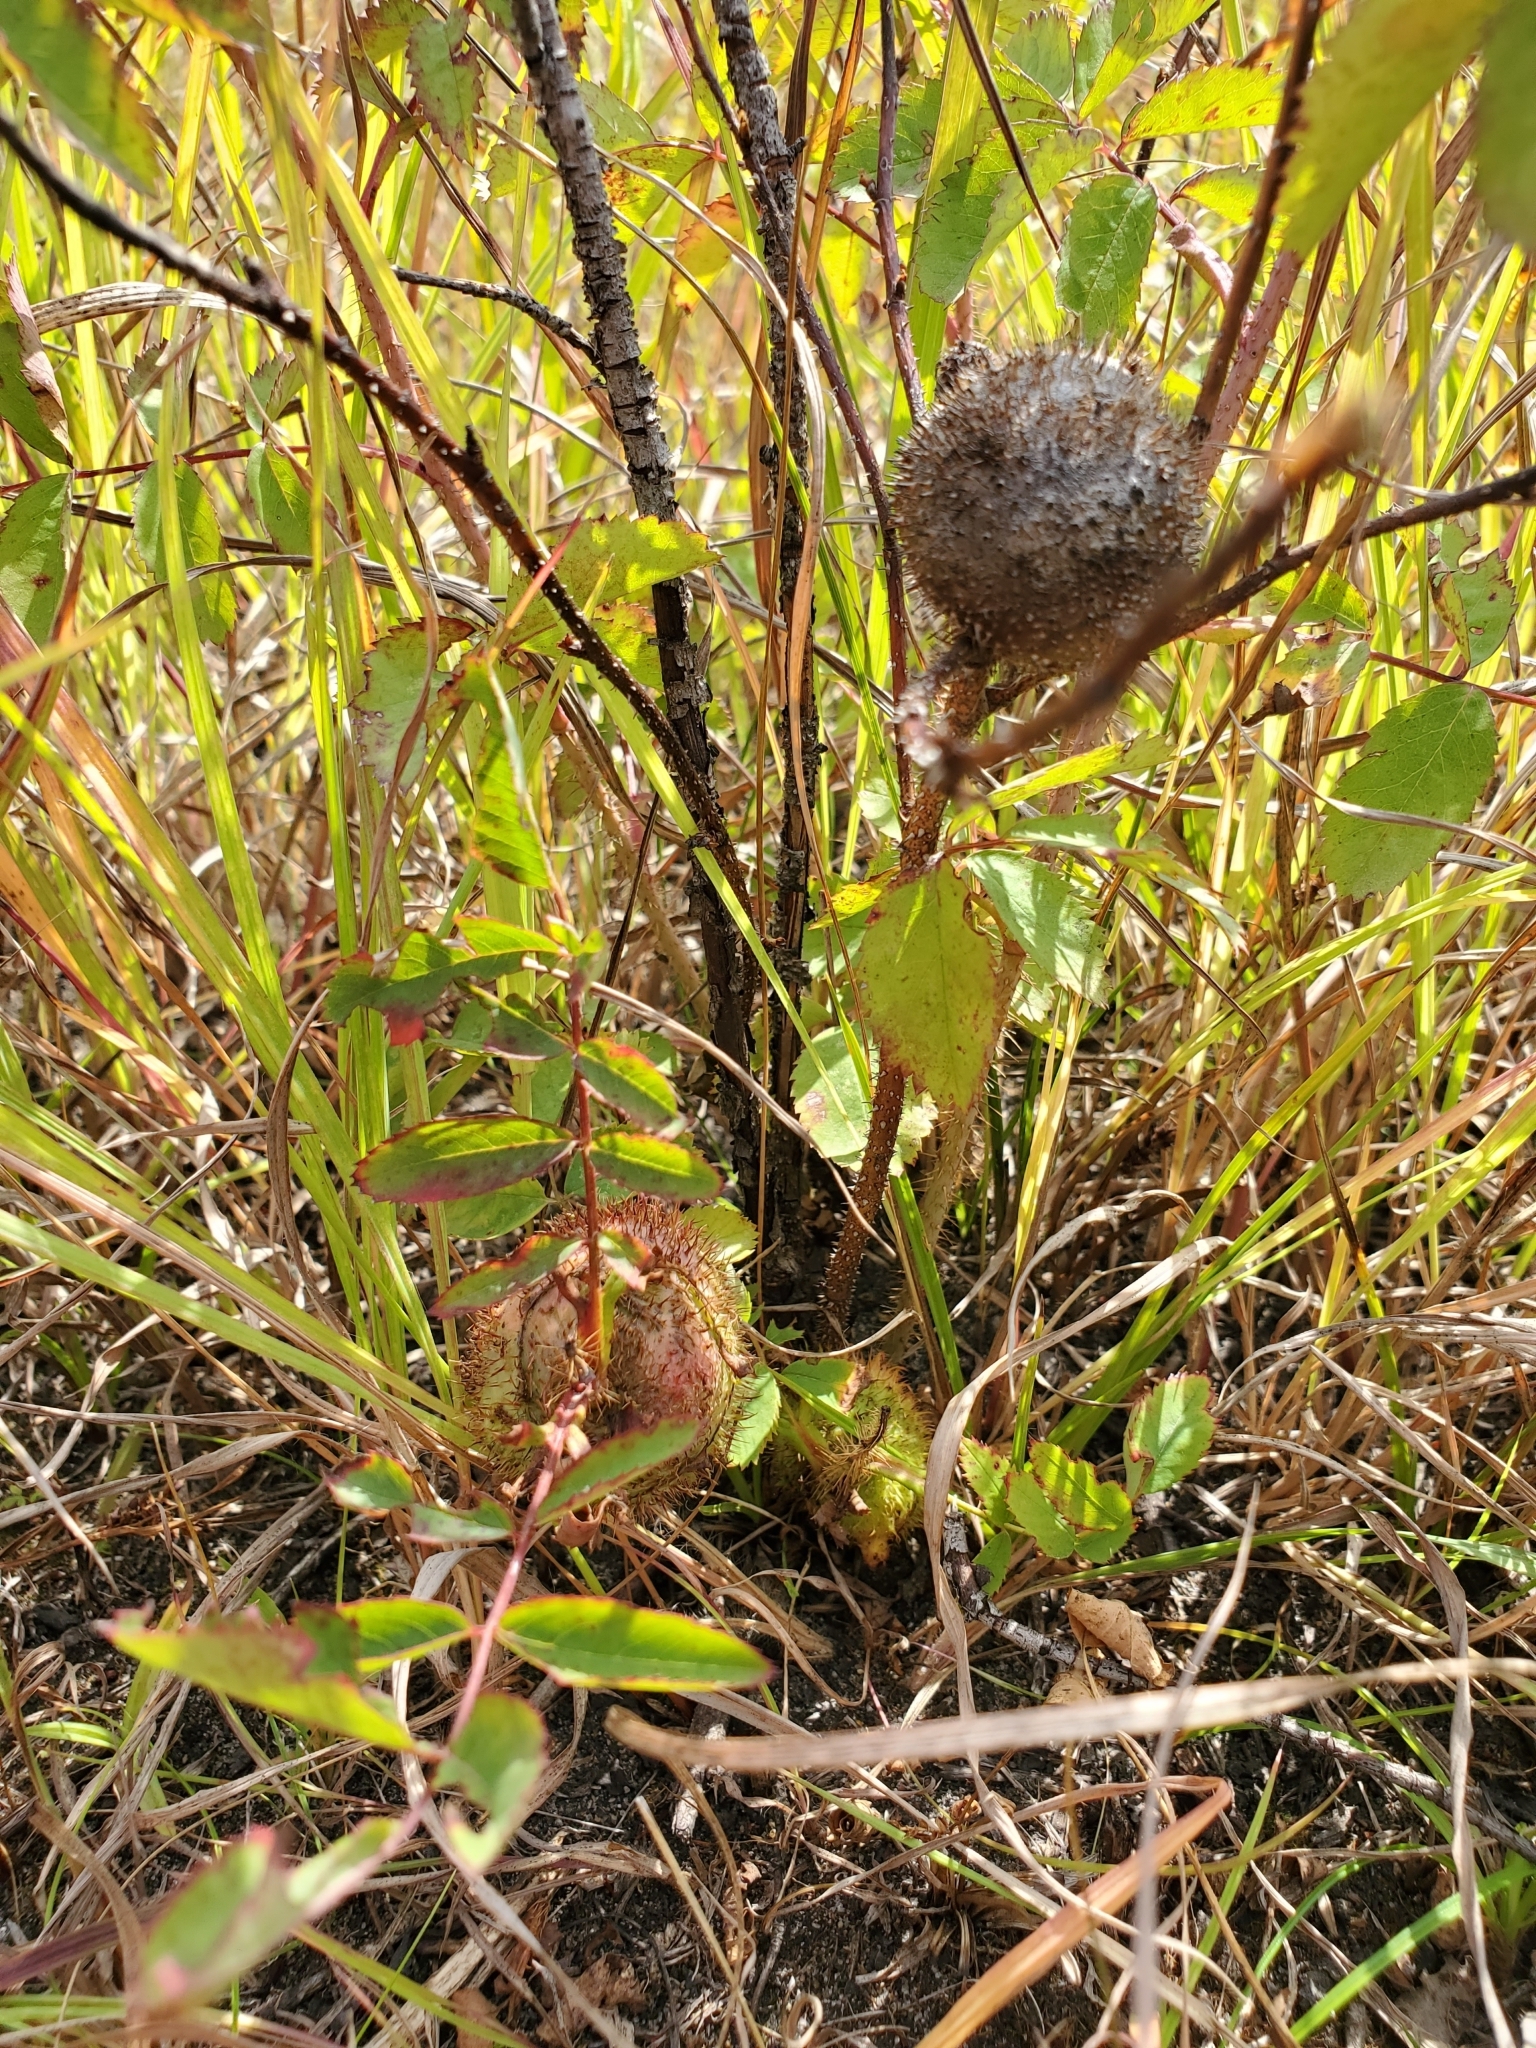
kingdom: Animalia
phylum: Arthropoda
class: Insecta
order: Hymenoptera
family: Cynipidae
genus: Diplolepis
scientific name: Diplolepis spinosa
